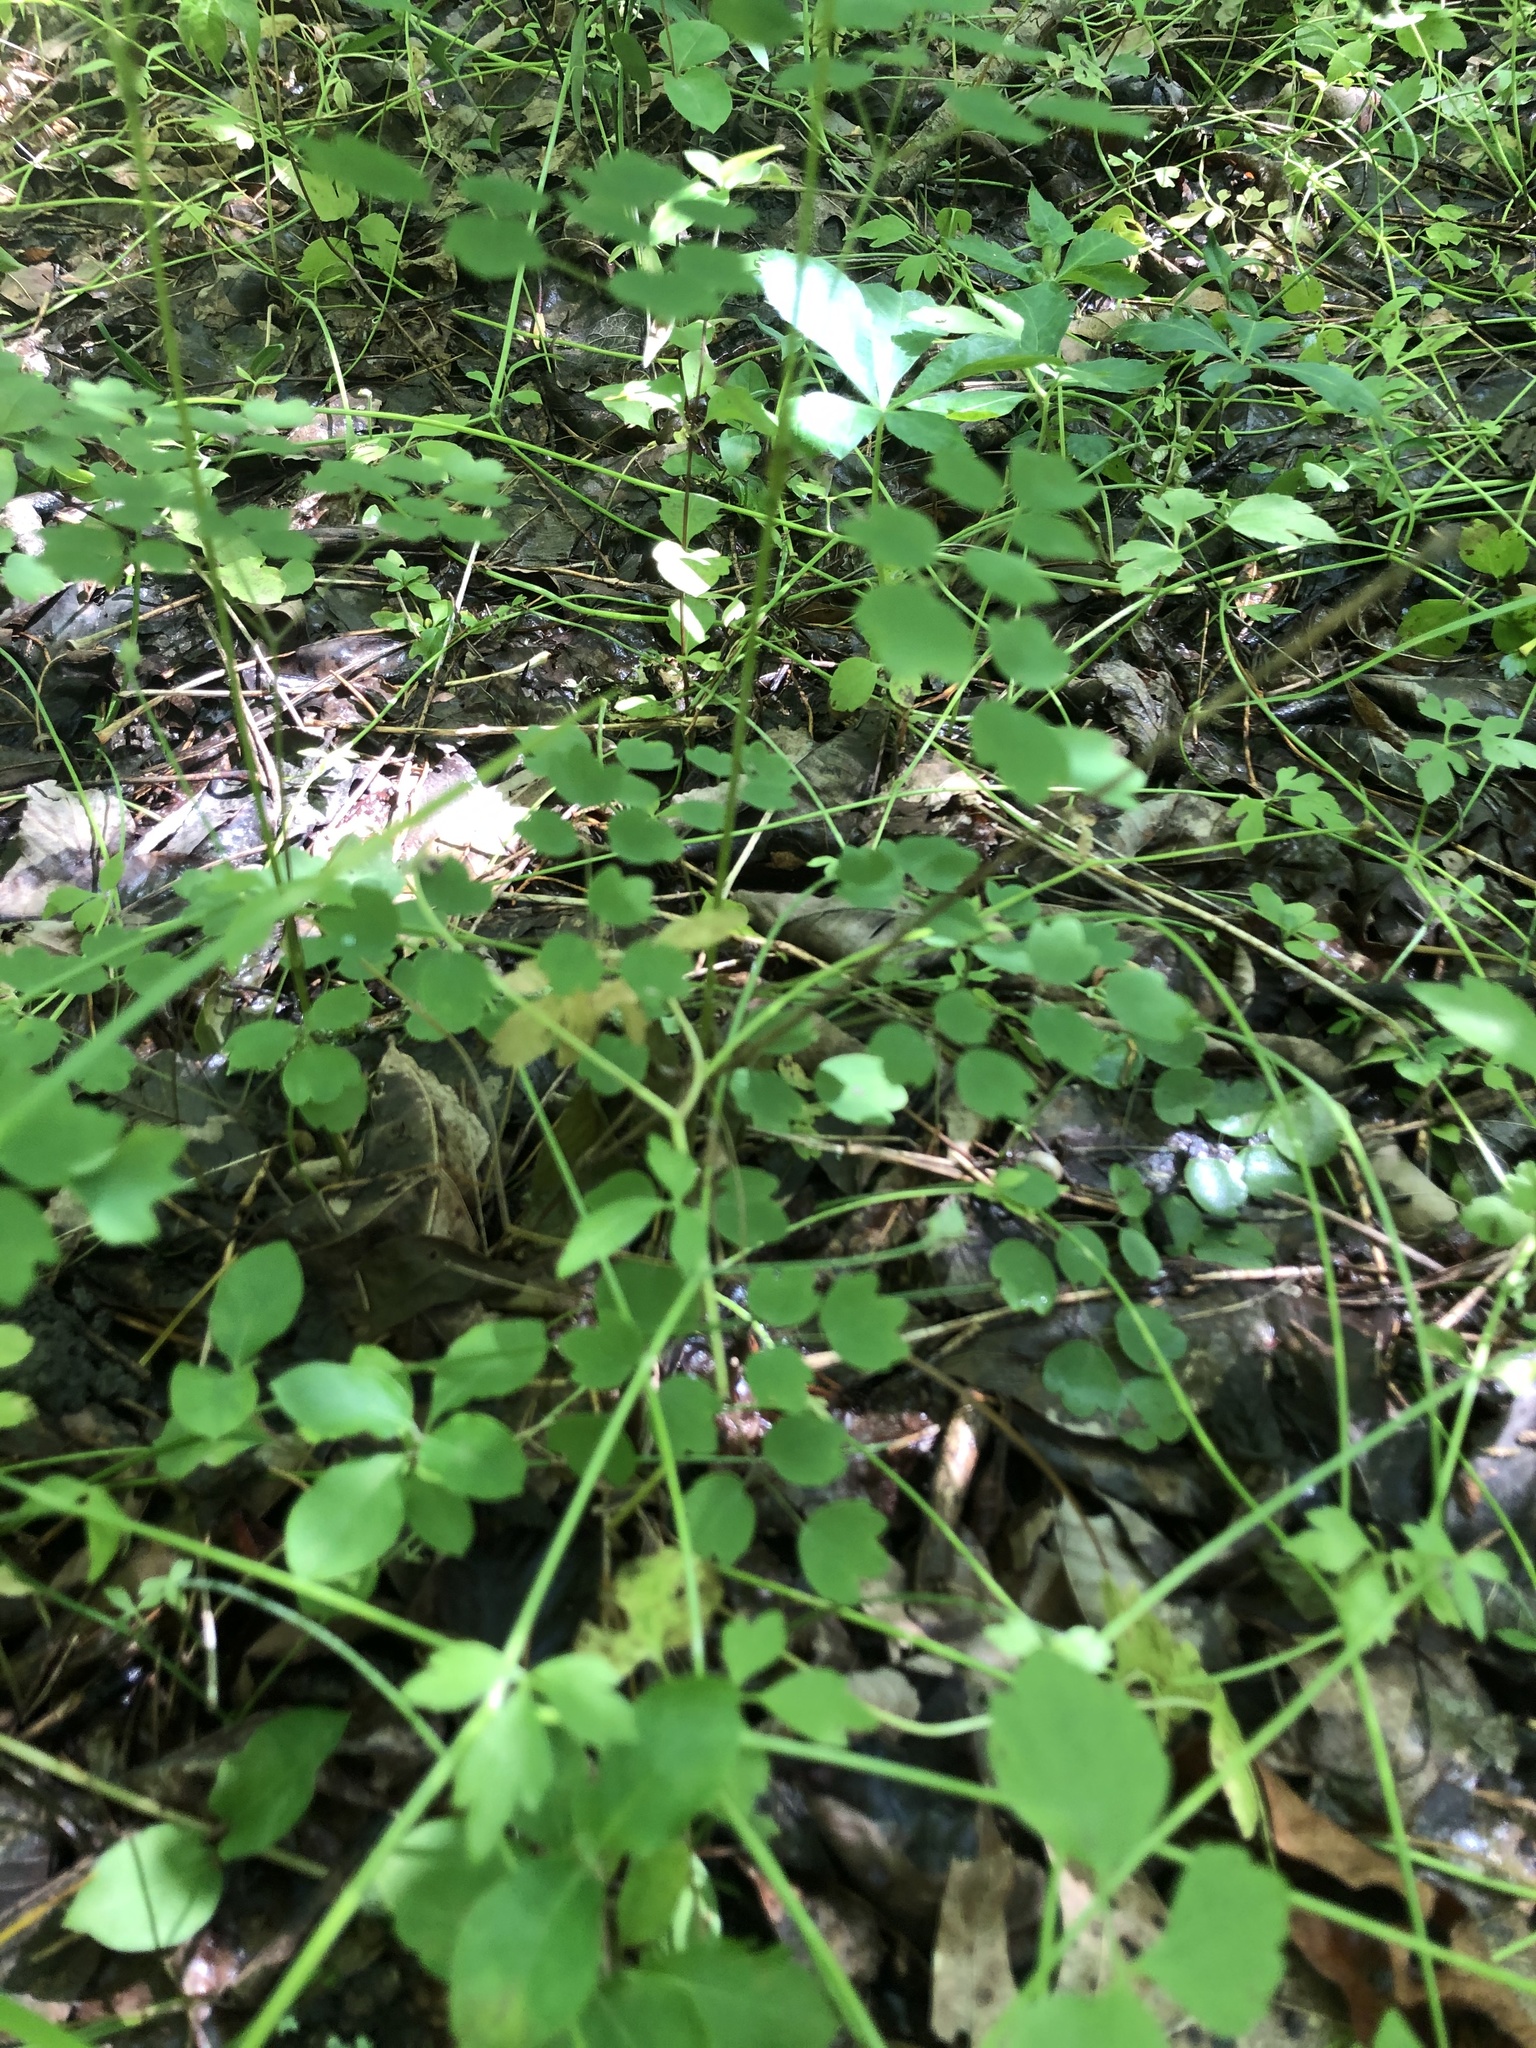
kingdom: Plantae
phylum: Tracheophyta
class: Magnoliopsida
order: Ranunculales
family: Ranunculaceae
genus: Ranunculus
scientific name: Ranunculus hispidus
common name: Bristly buttercup
